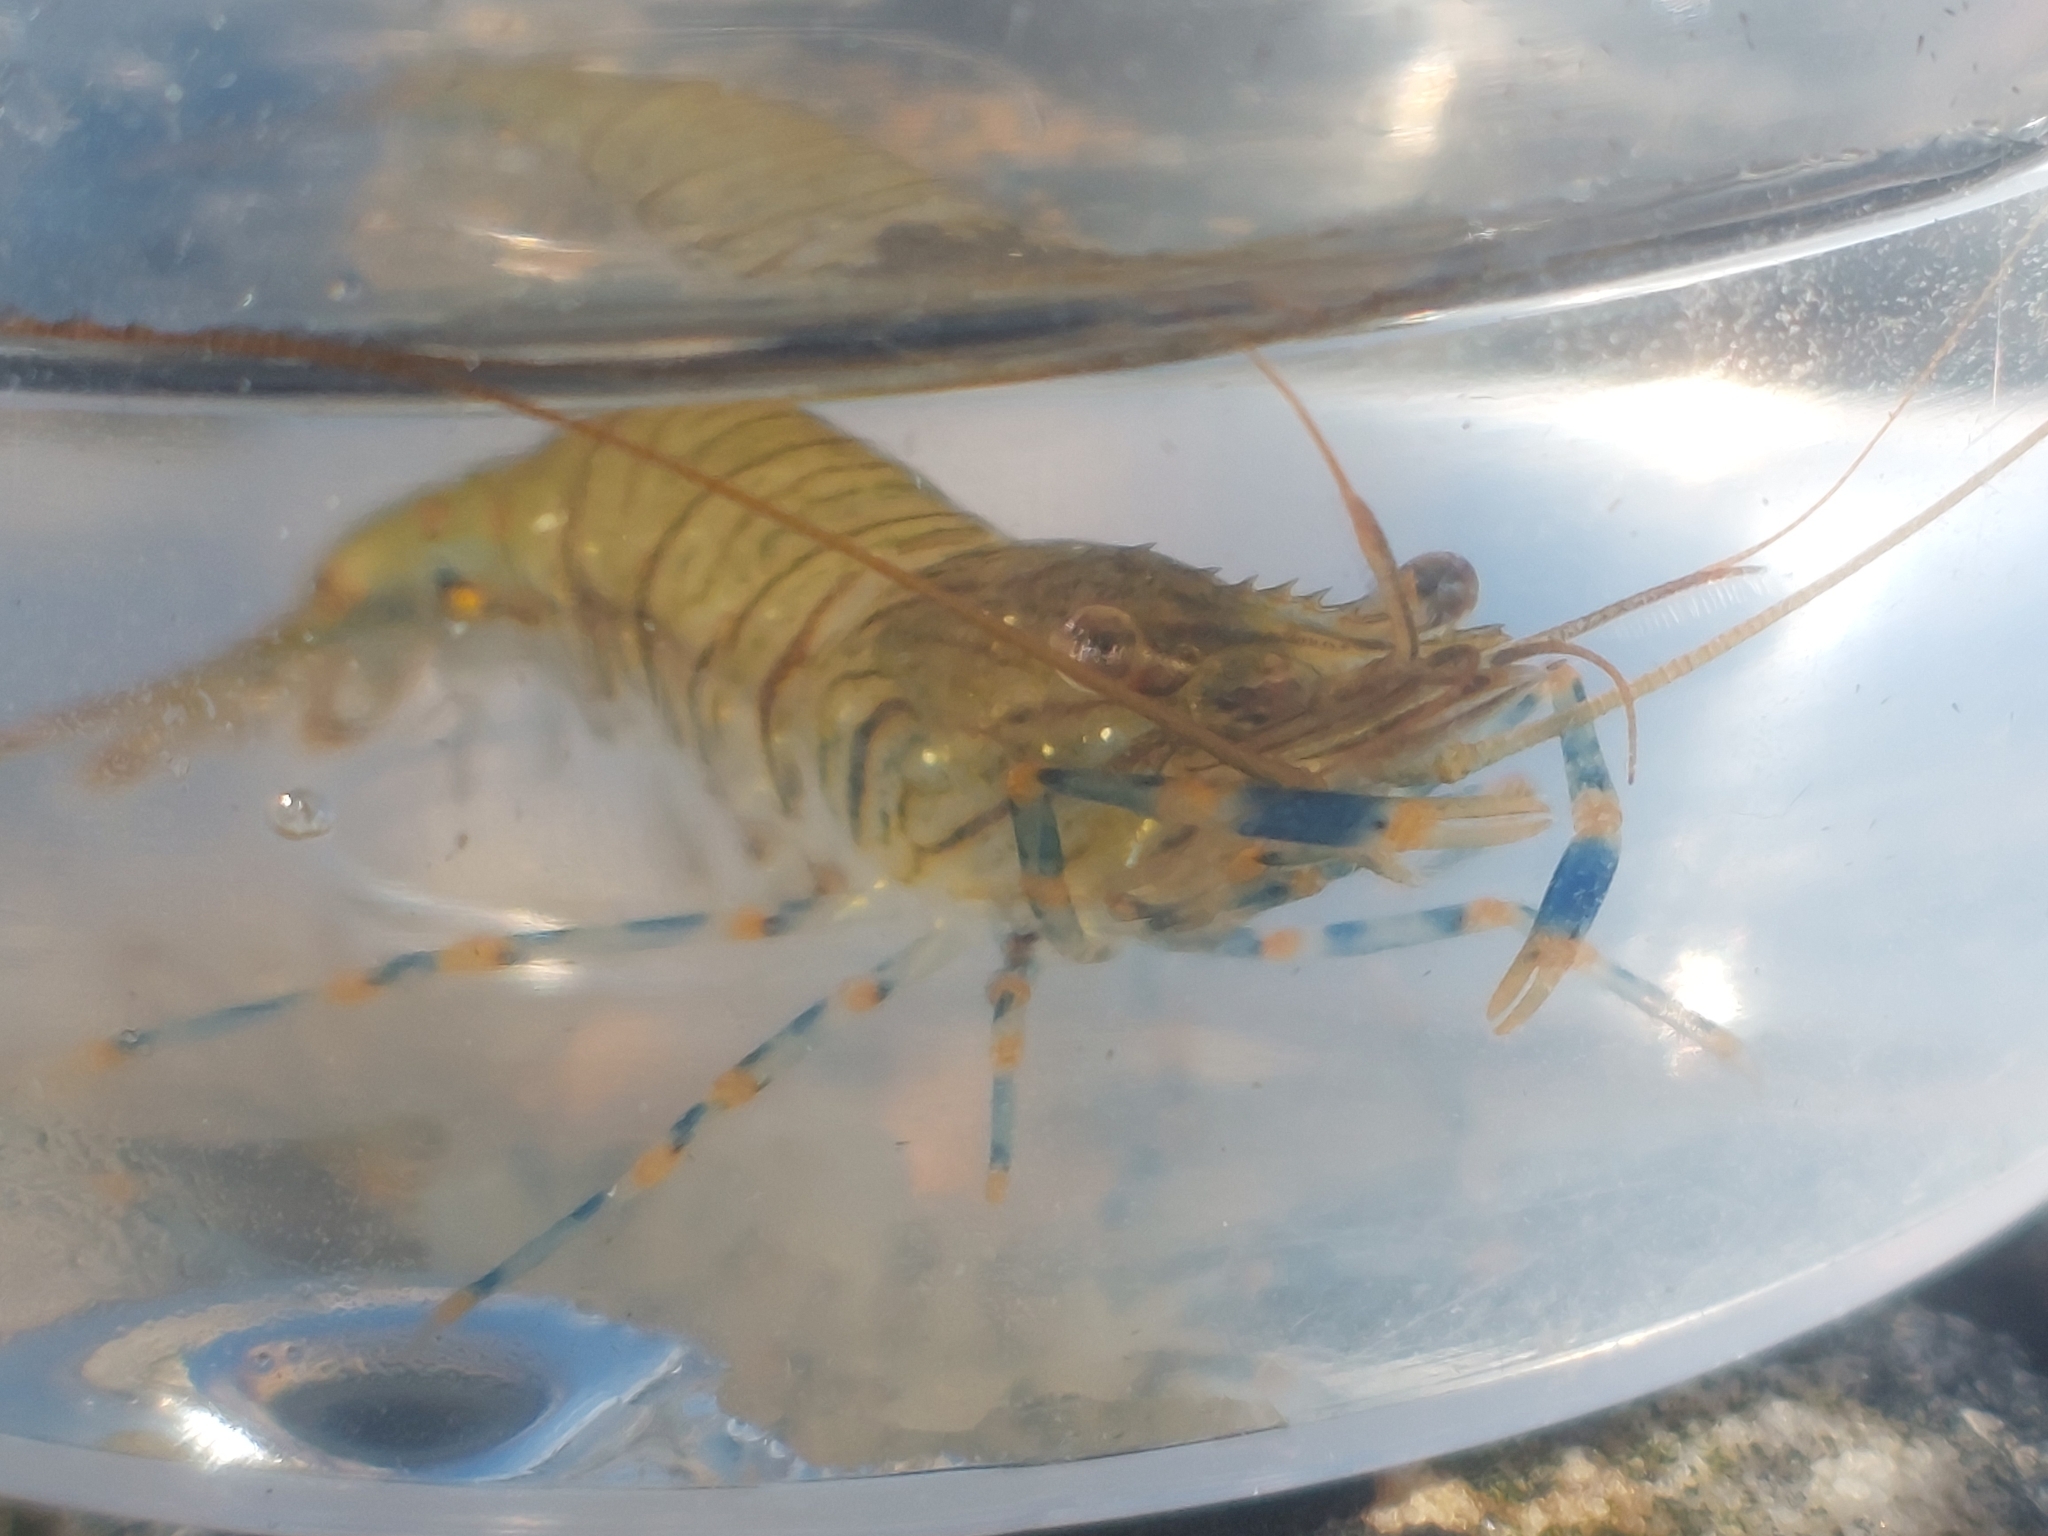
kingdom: Animalia
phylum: Arthropoda
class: Malacostraca
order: Decapoda
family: Palaemonidae
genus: Palaemon
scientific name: Palaemon elegans
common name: Grass prawm
